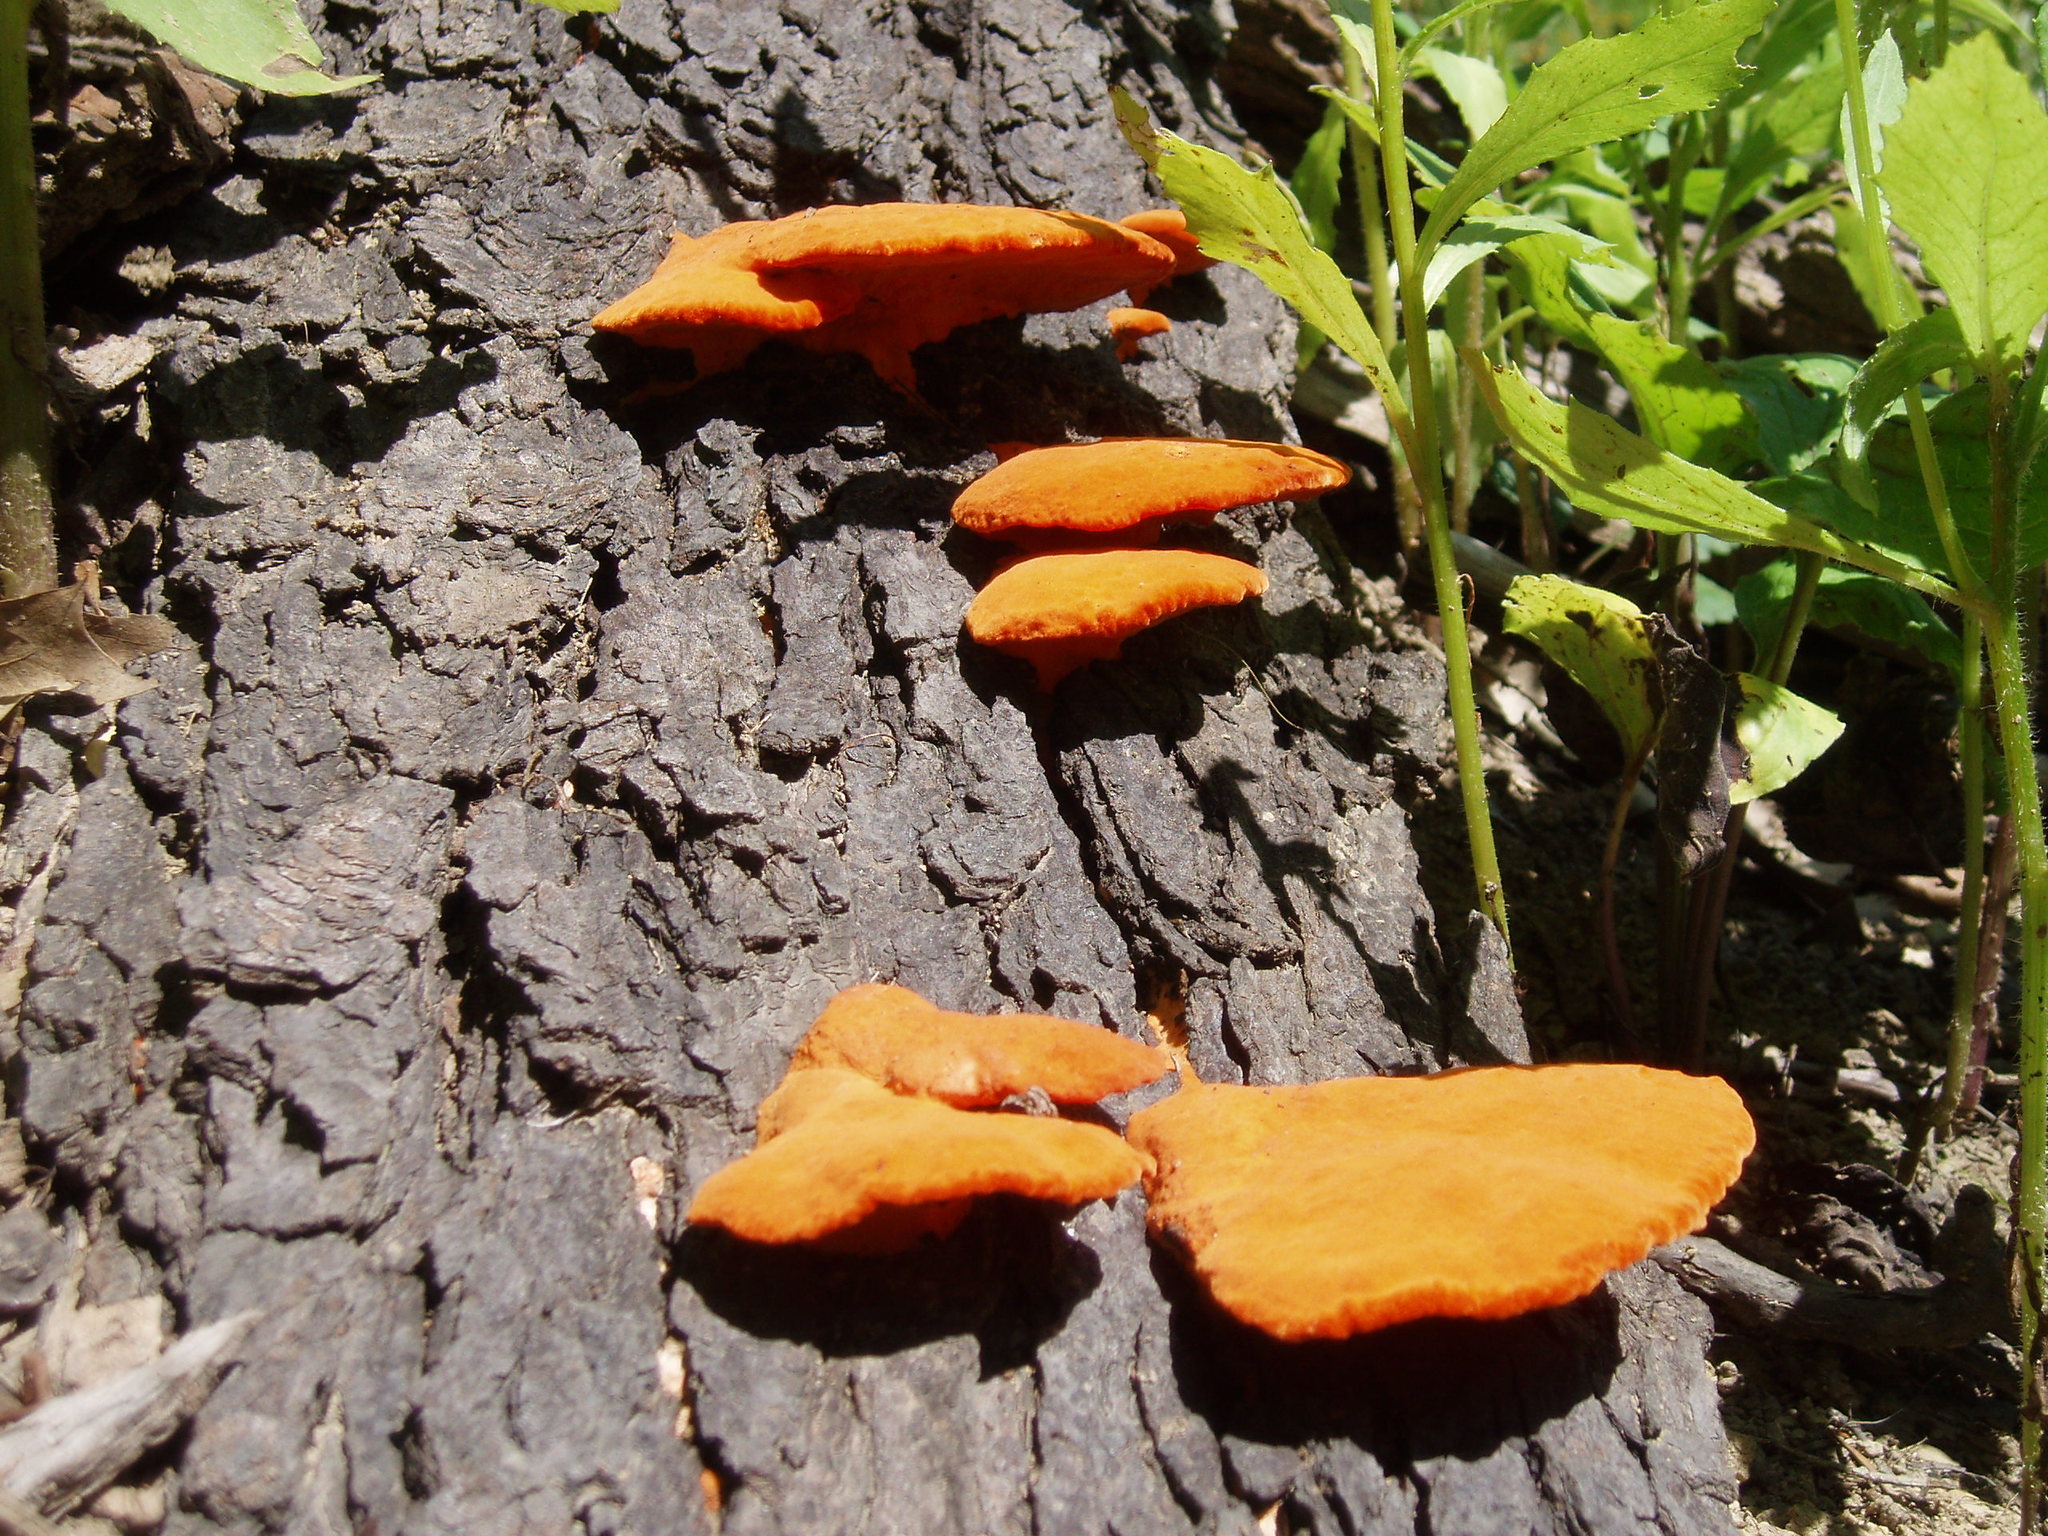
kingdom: Fungi
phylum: Basidiomycota
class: Agaricomycetes
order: Polyporales
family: Polyporaceae
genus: Trametes
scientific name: Trametes cinnabarina
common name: Northern cinnabar polypore
